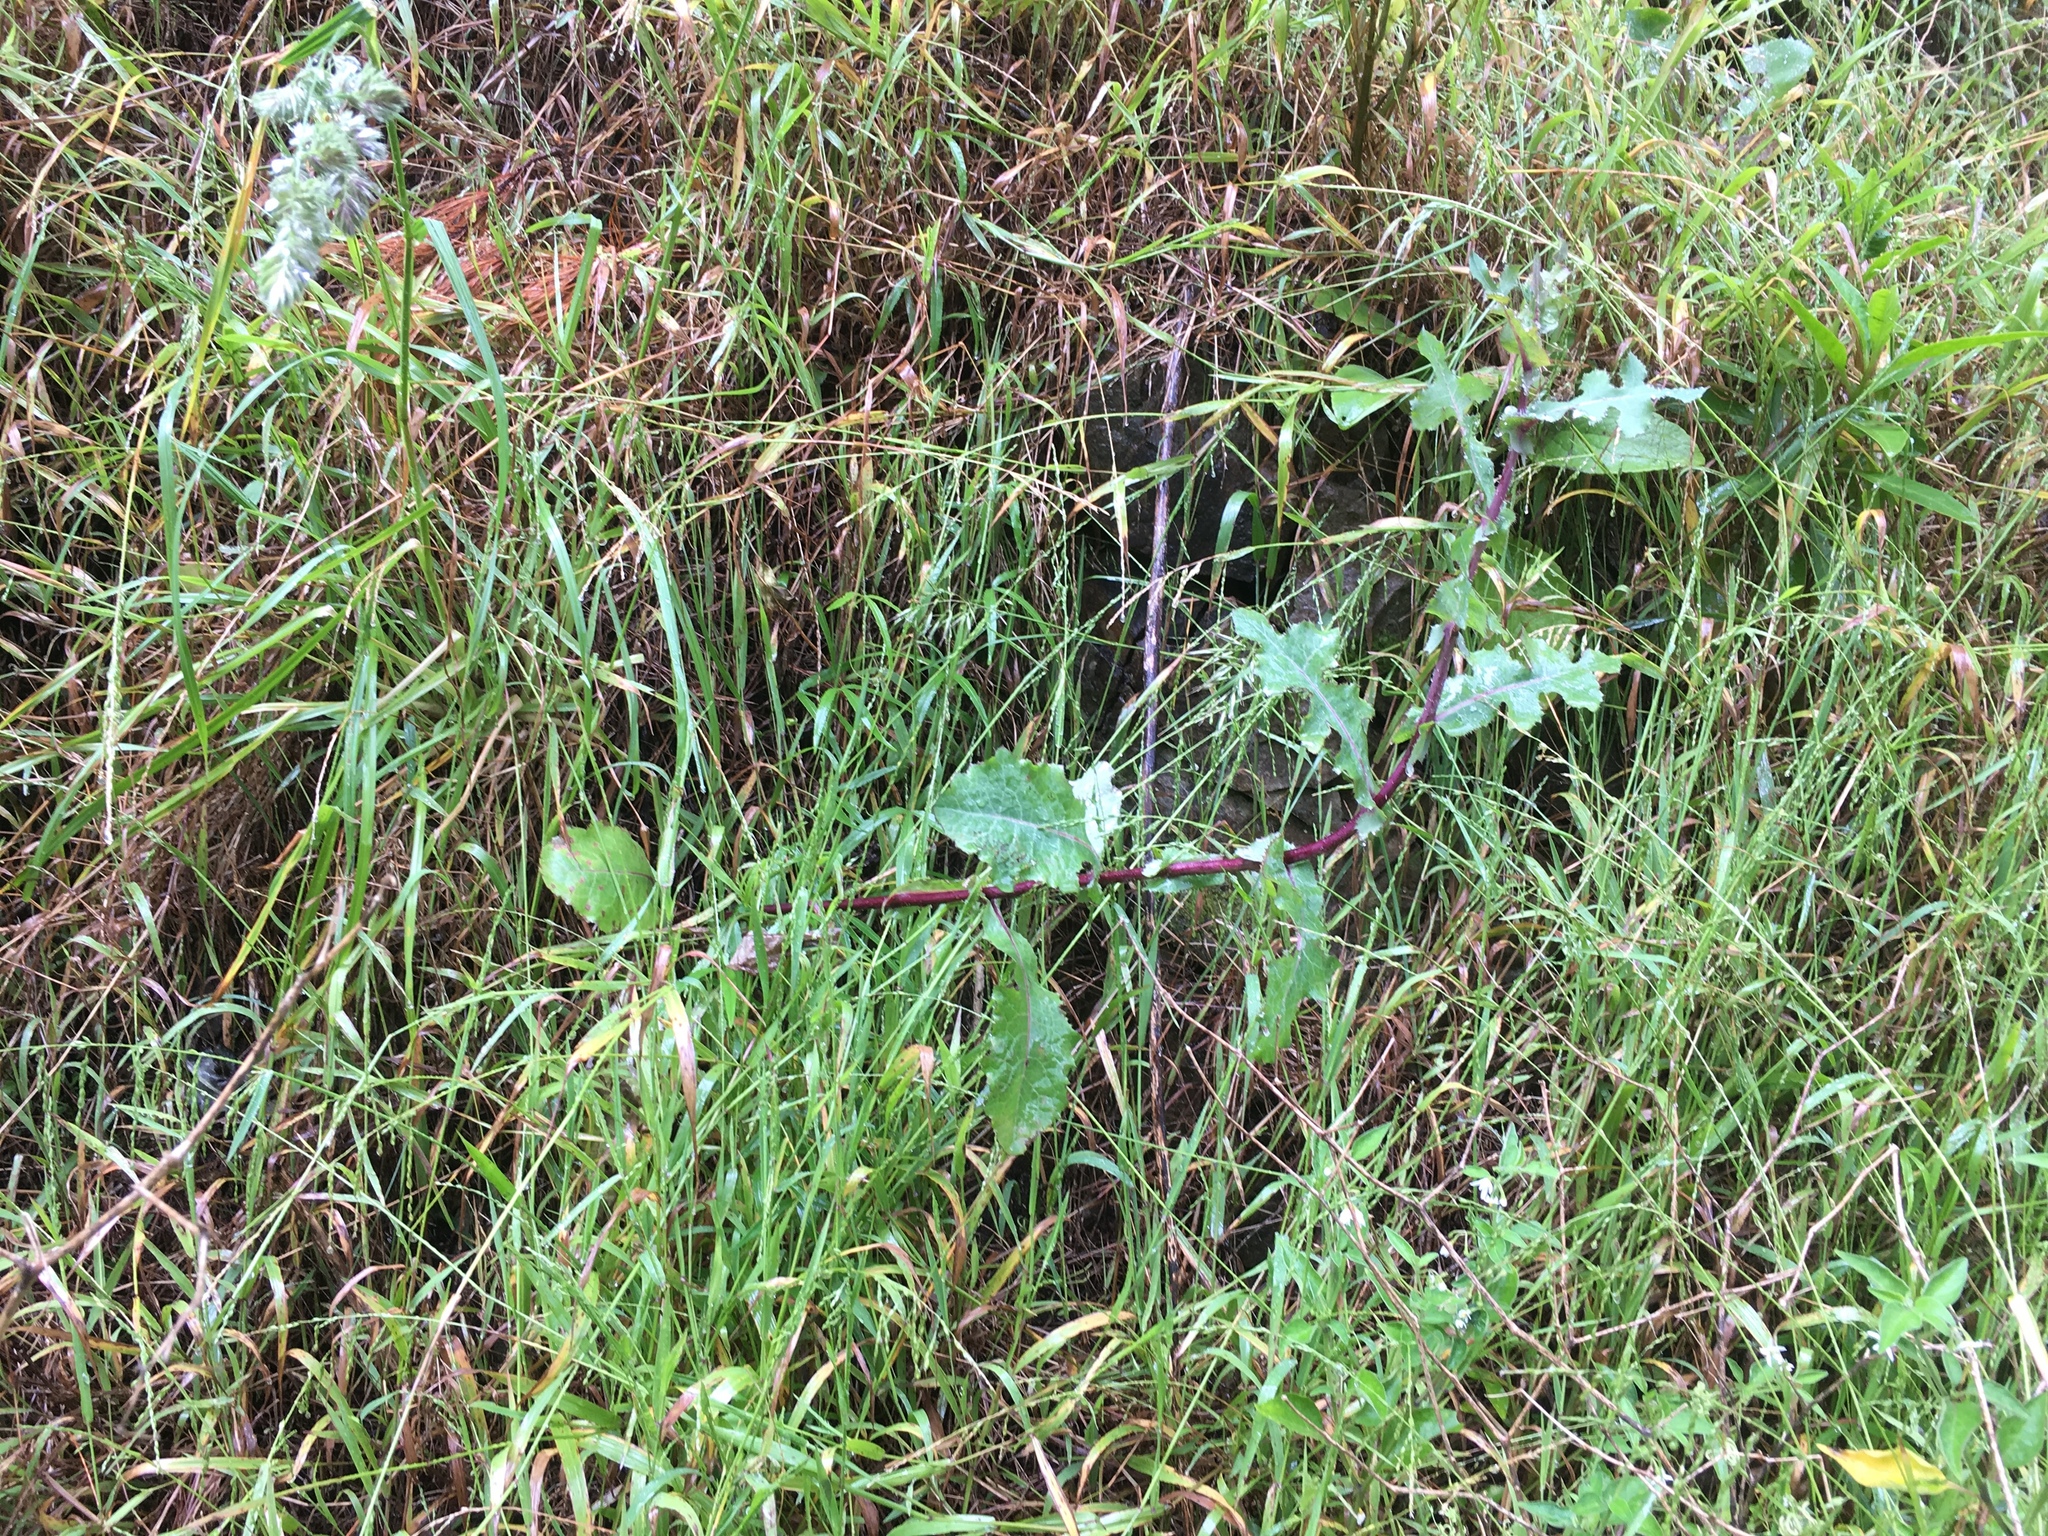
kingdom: Plantae
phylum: Tracheophyta
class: Magnoliopsida
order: Asterales
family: Asteraceae
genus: Sonchus
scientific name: Sonchus asper
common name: Prickly sow-thistle
